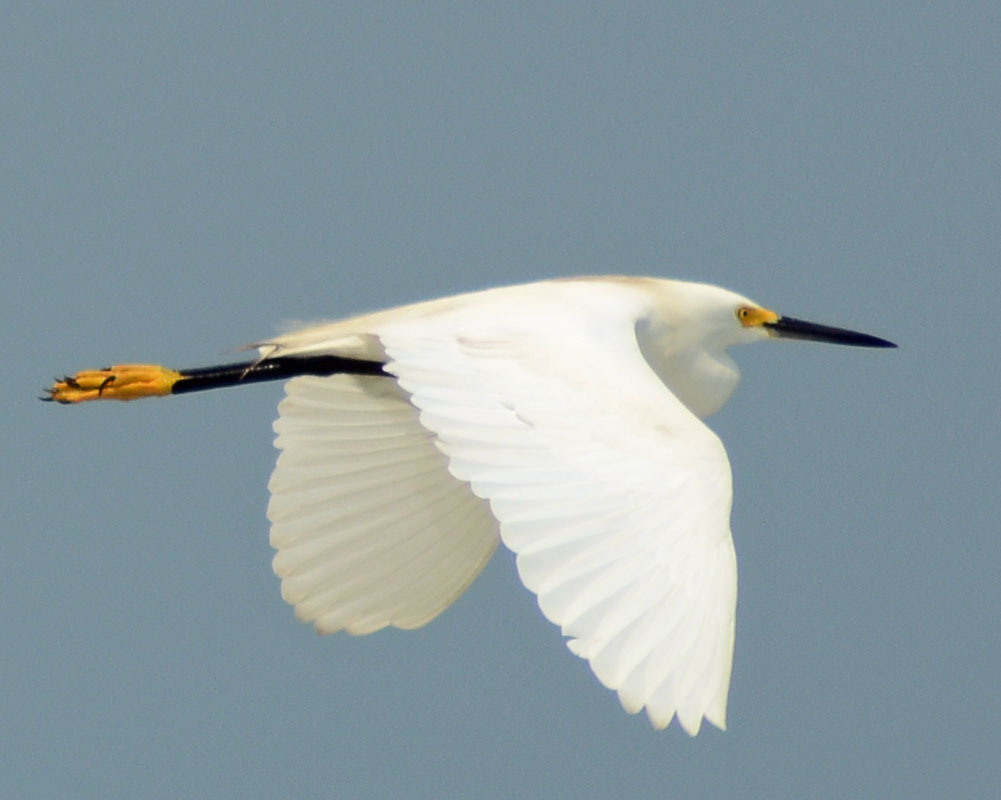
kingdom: Animalia
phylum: Chordata
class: Aves
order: Pelecaniformes
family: Ardeidae
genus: Egretta
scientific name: Egretta thula
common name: Snowy egret
